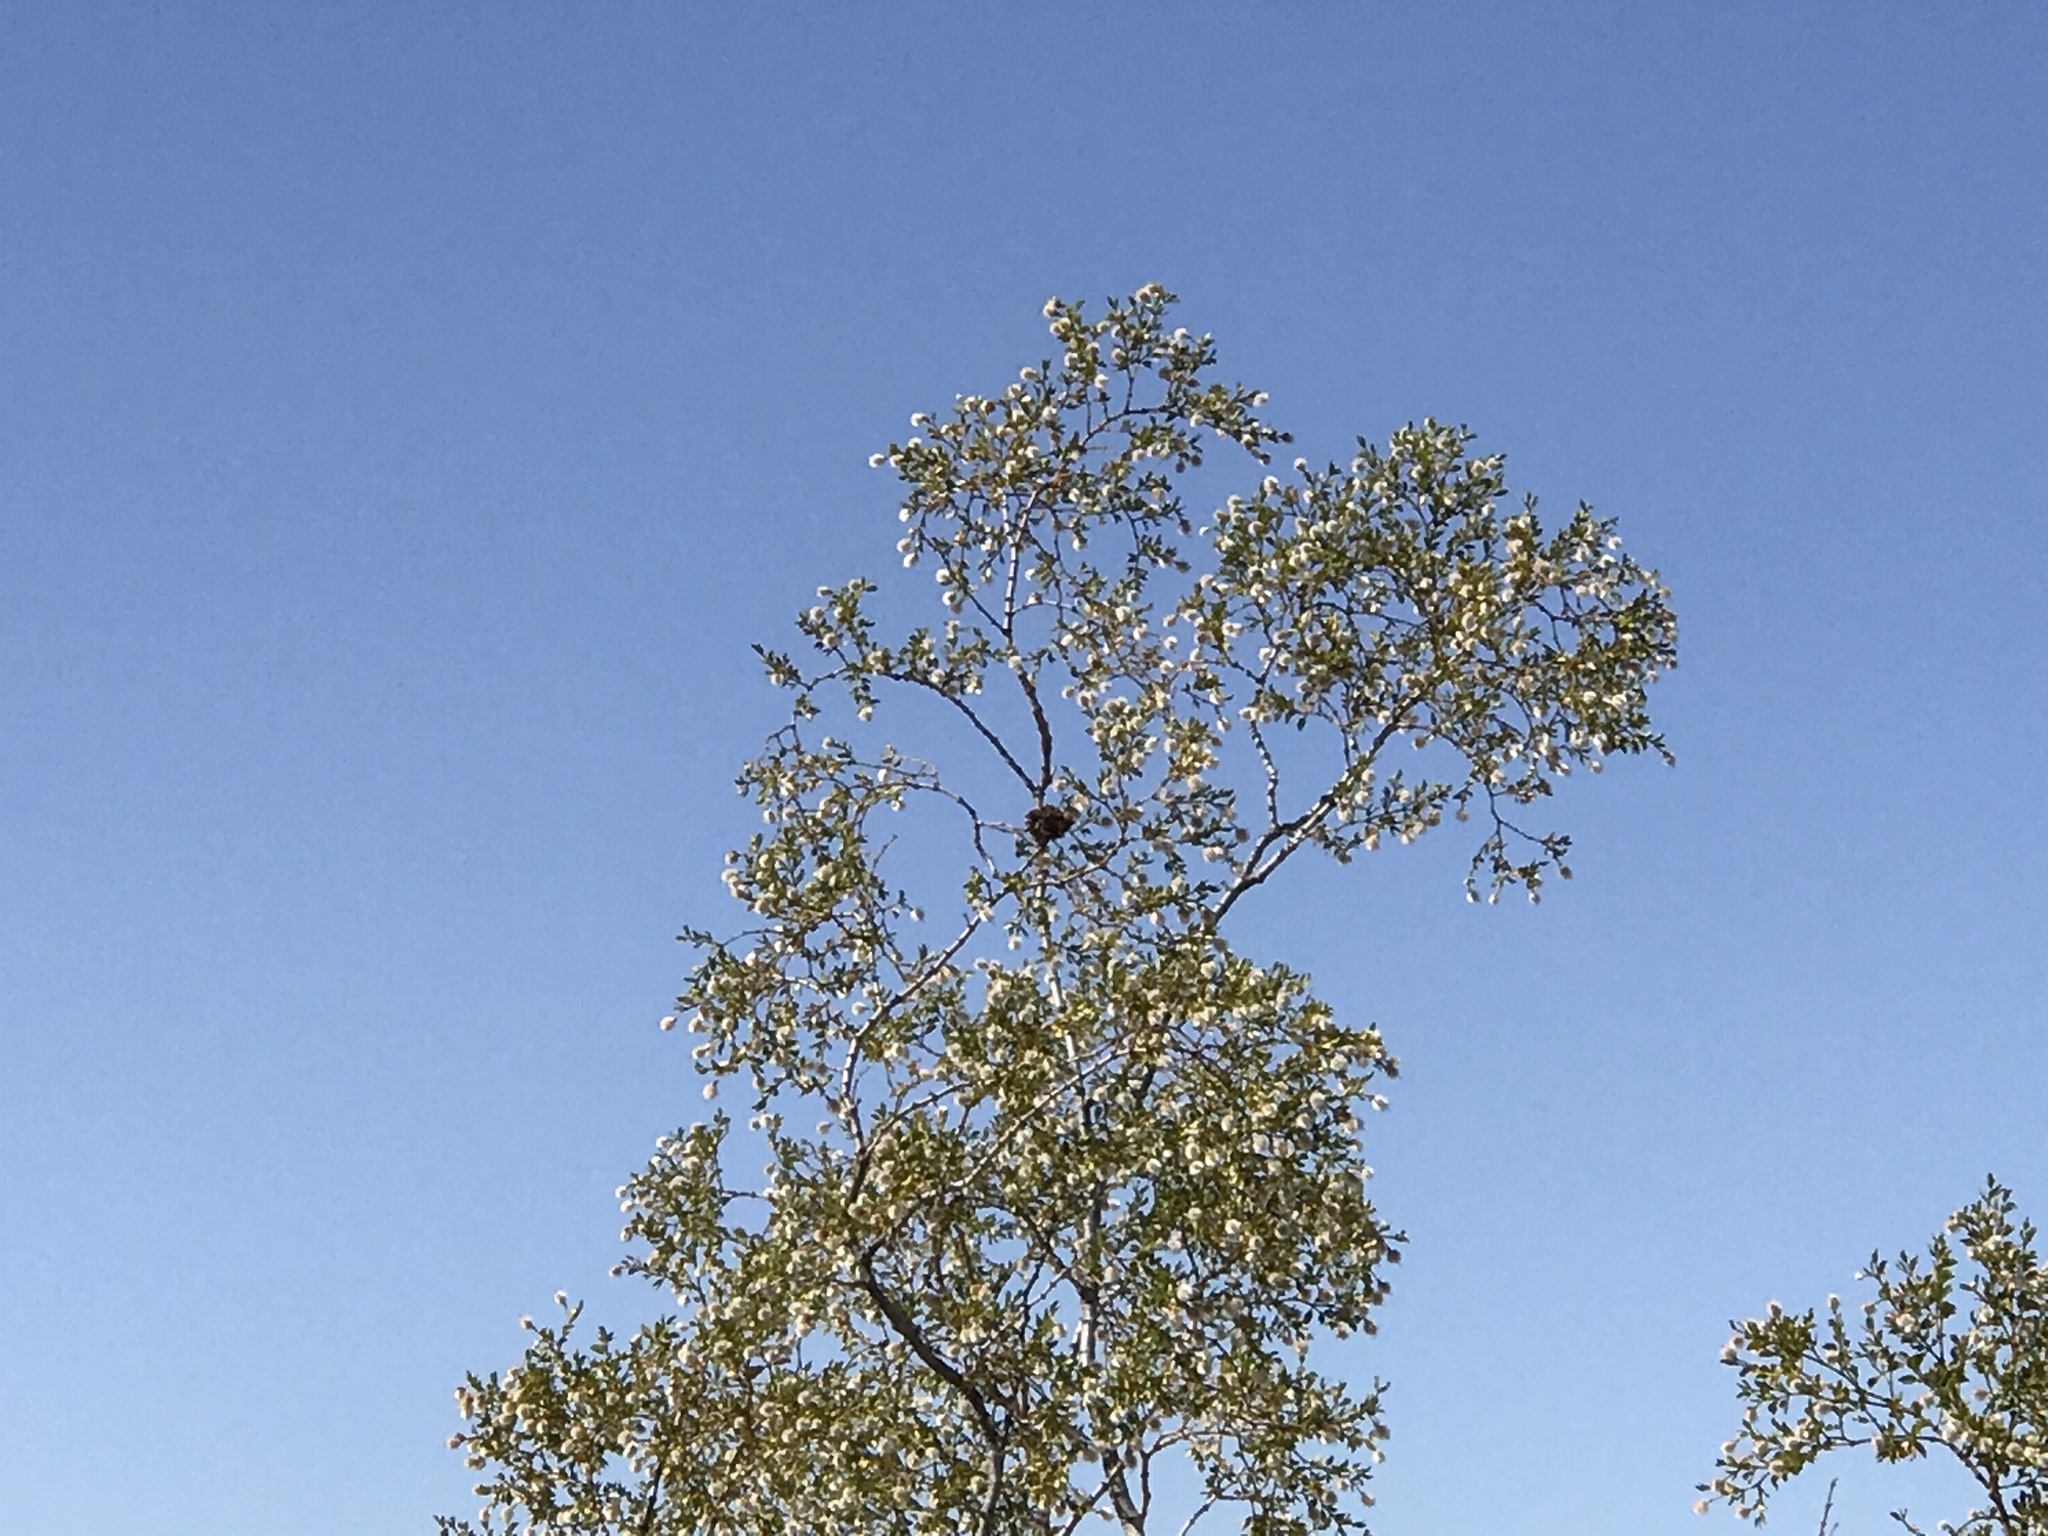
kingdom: Plantae
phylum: Tracheophyta
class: Magnoliopsida
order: Zygophyllales
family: Zygophyllaceae
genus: Larrea
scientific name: Larrea tridentata
